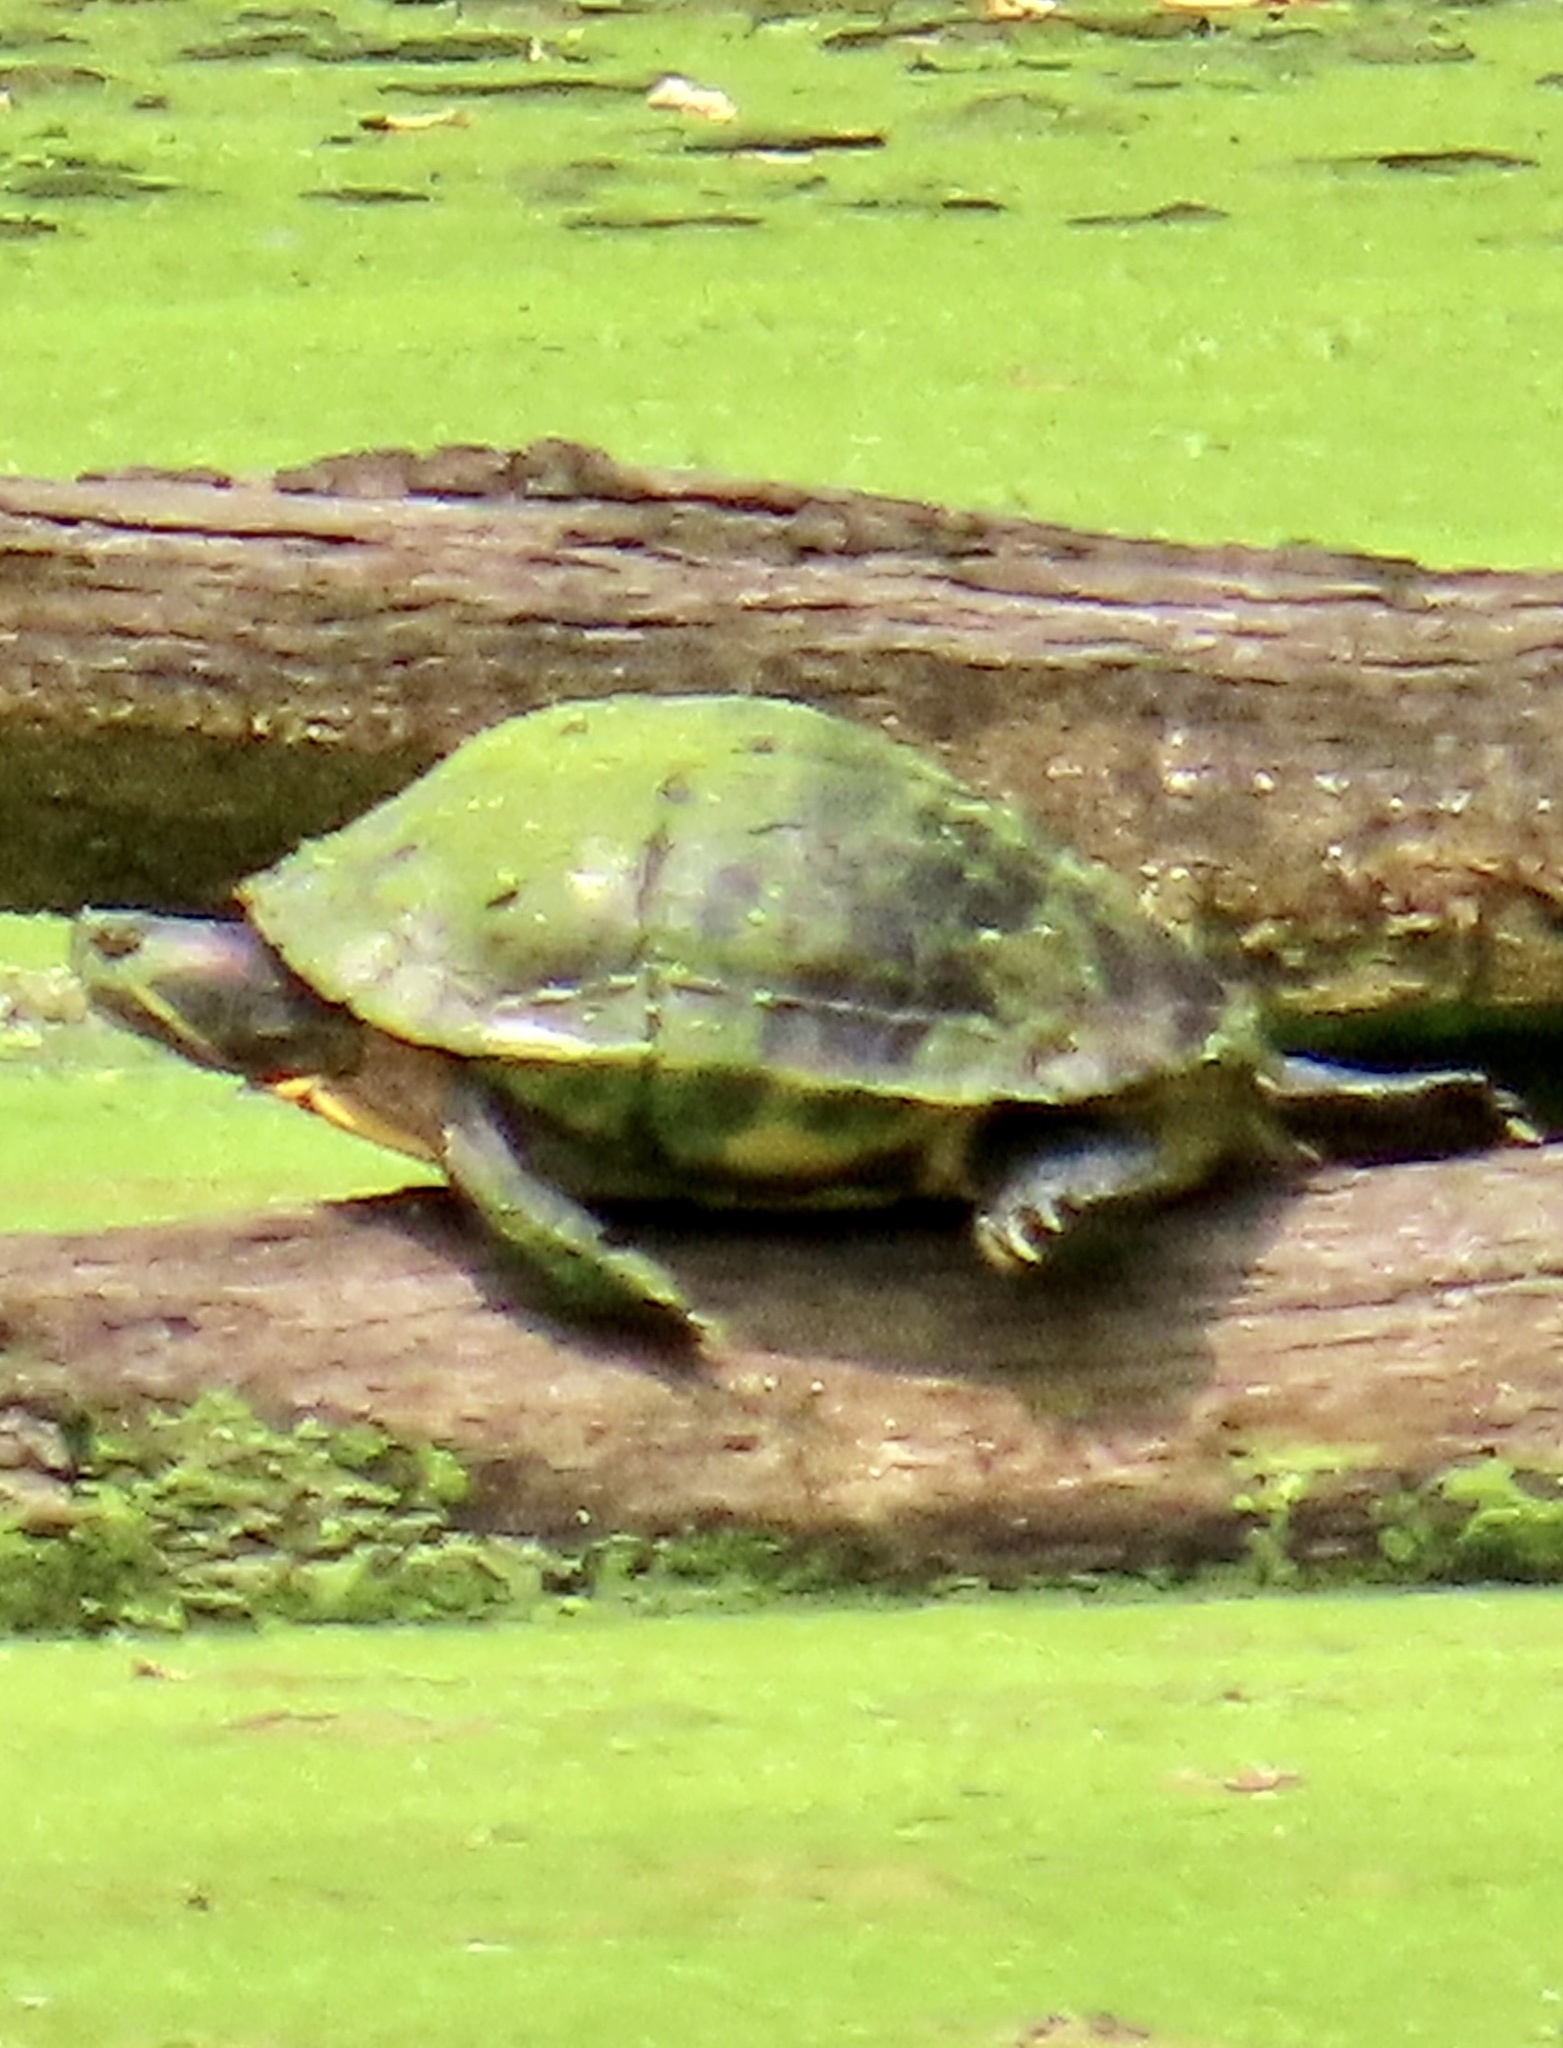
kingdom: Animalia
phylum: Chordata
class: Testudines
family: Emydidae
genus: Trachemys
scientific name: Trachemys scripta
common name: Slider
